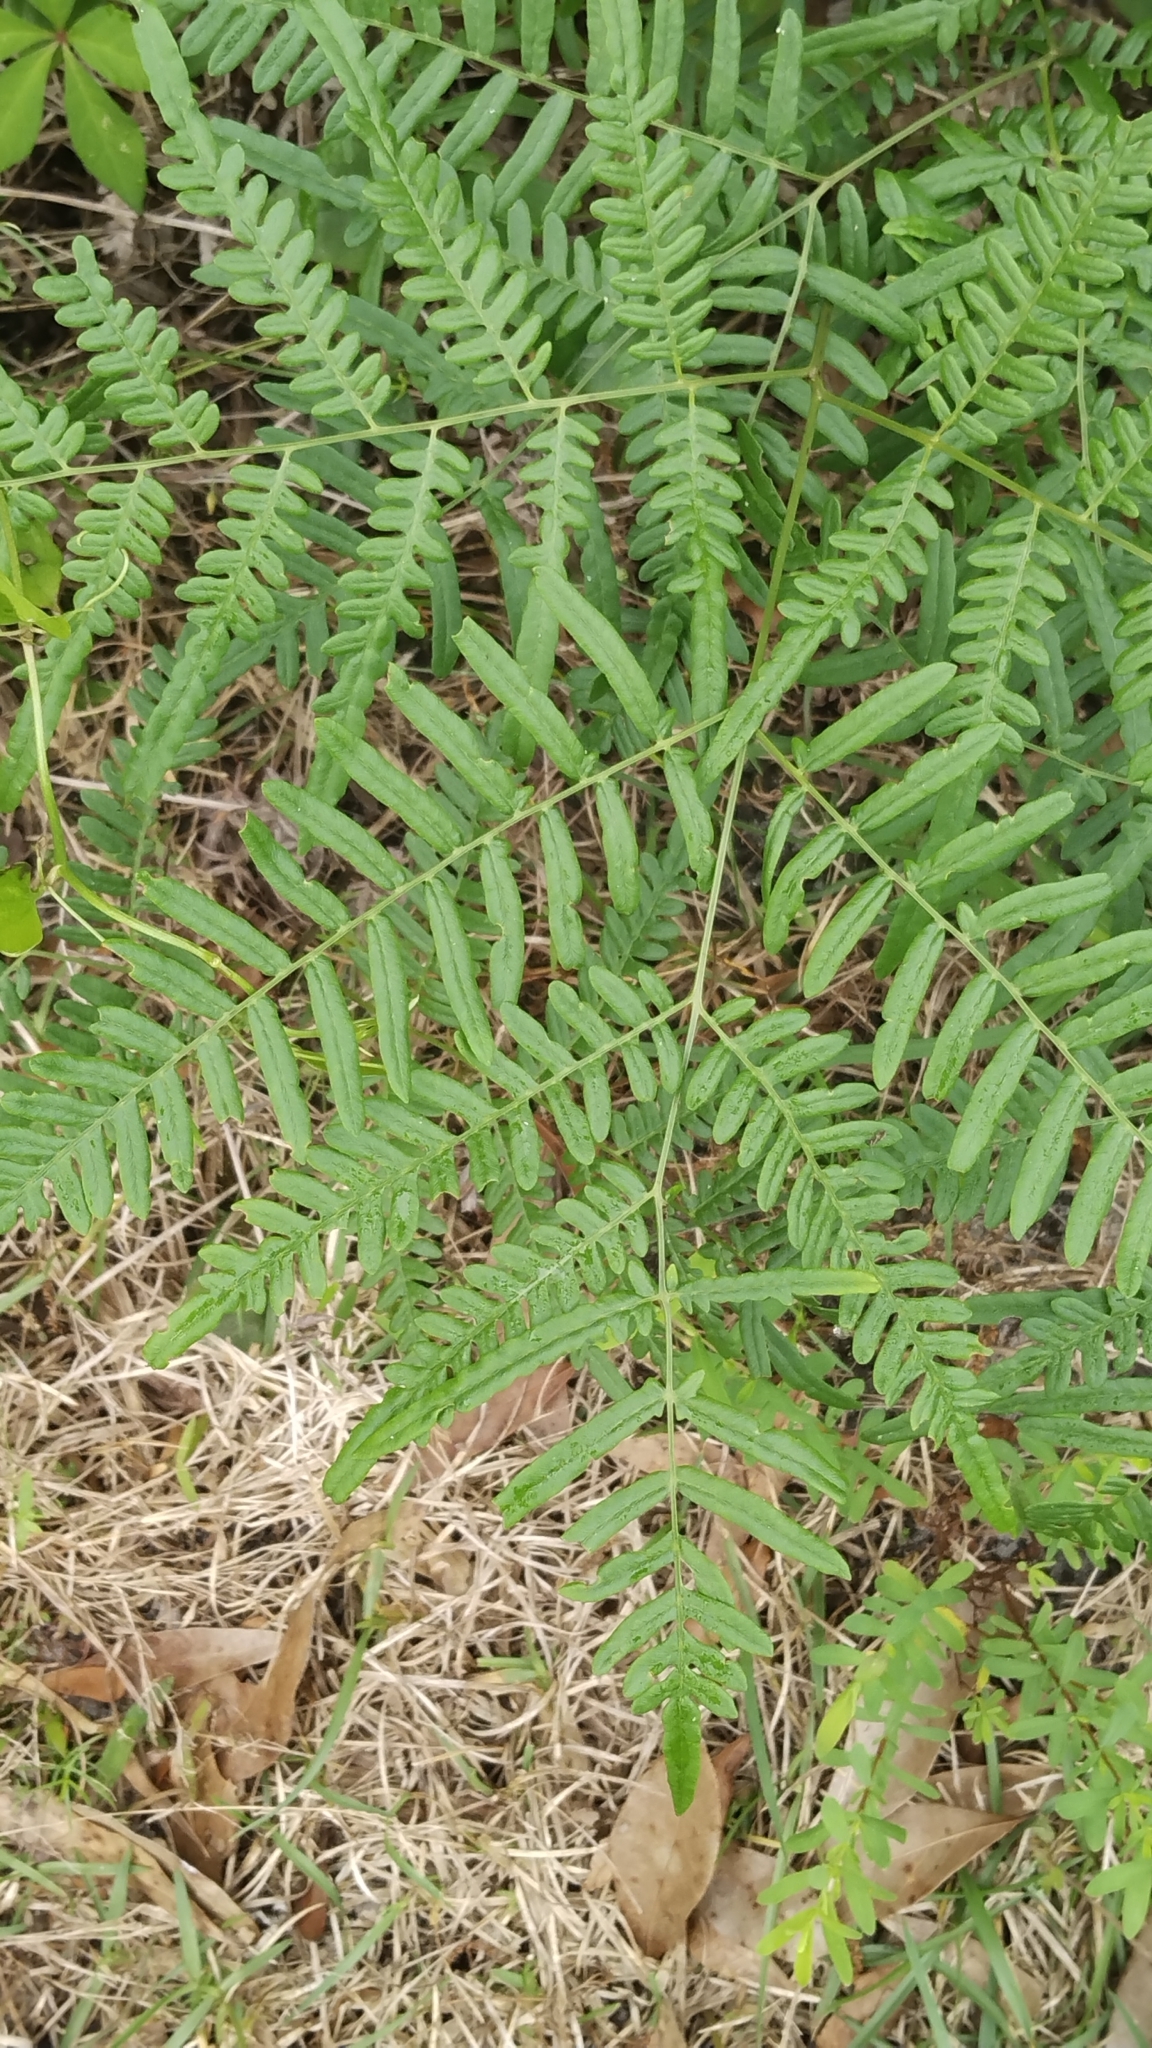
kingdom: Plantae
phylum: Tracheophyta
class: Polypodiopsida
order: Polypodiales
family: Dennstaedtiaceae
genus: Pteridium
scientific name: Pteridium
